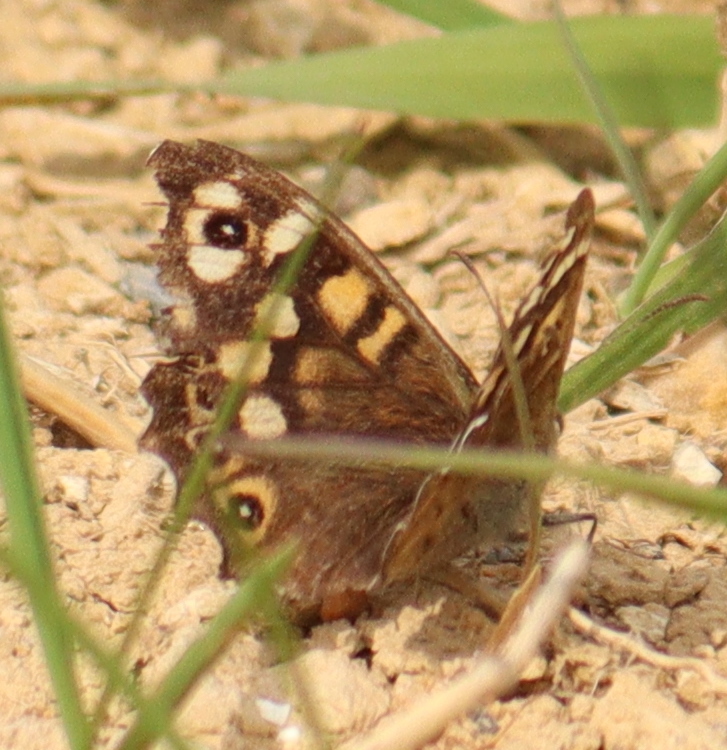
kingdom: Animalia
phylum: Arthropoda
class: Insecta
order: Lepidoptera
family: Nymphalidae
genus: Pararge
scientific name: Pararge aegeria
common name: Speckled wood
